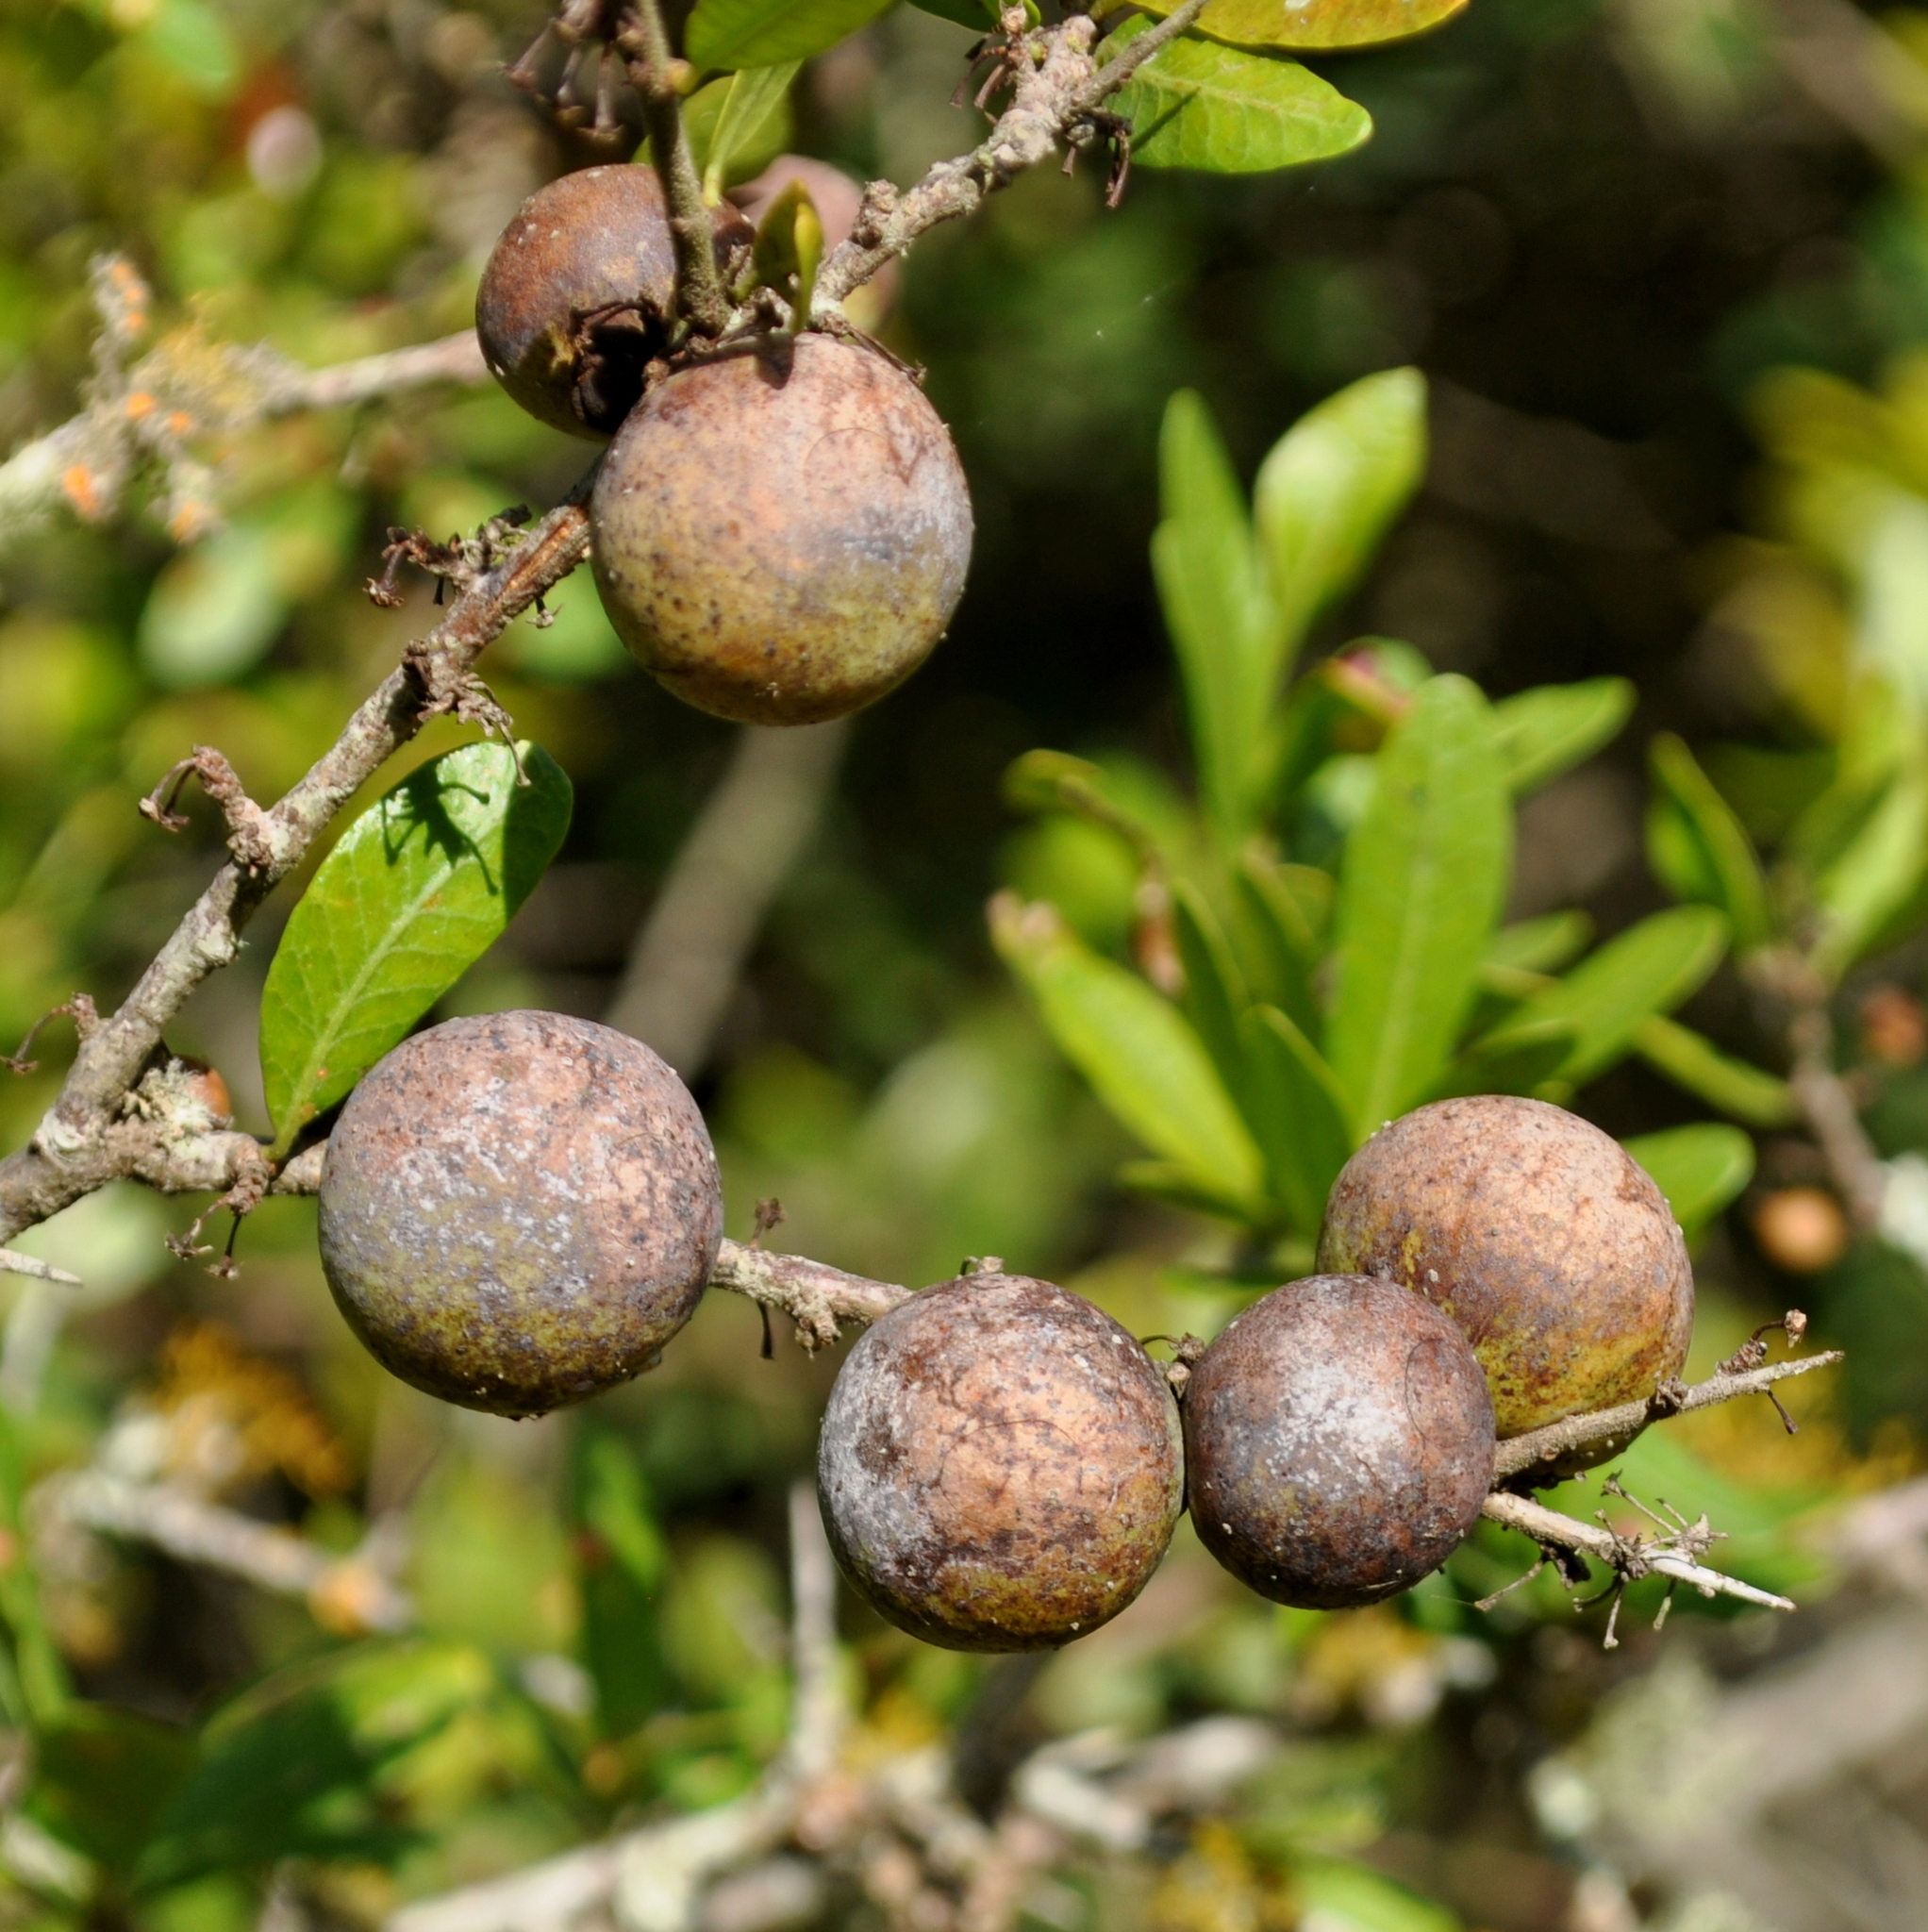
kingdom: Animalia
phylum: Arthropoda
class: Insecta
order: Lepidoptera
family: Cecidosidae
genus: Cecidoses
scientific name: Cecidoses eremita
